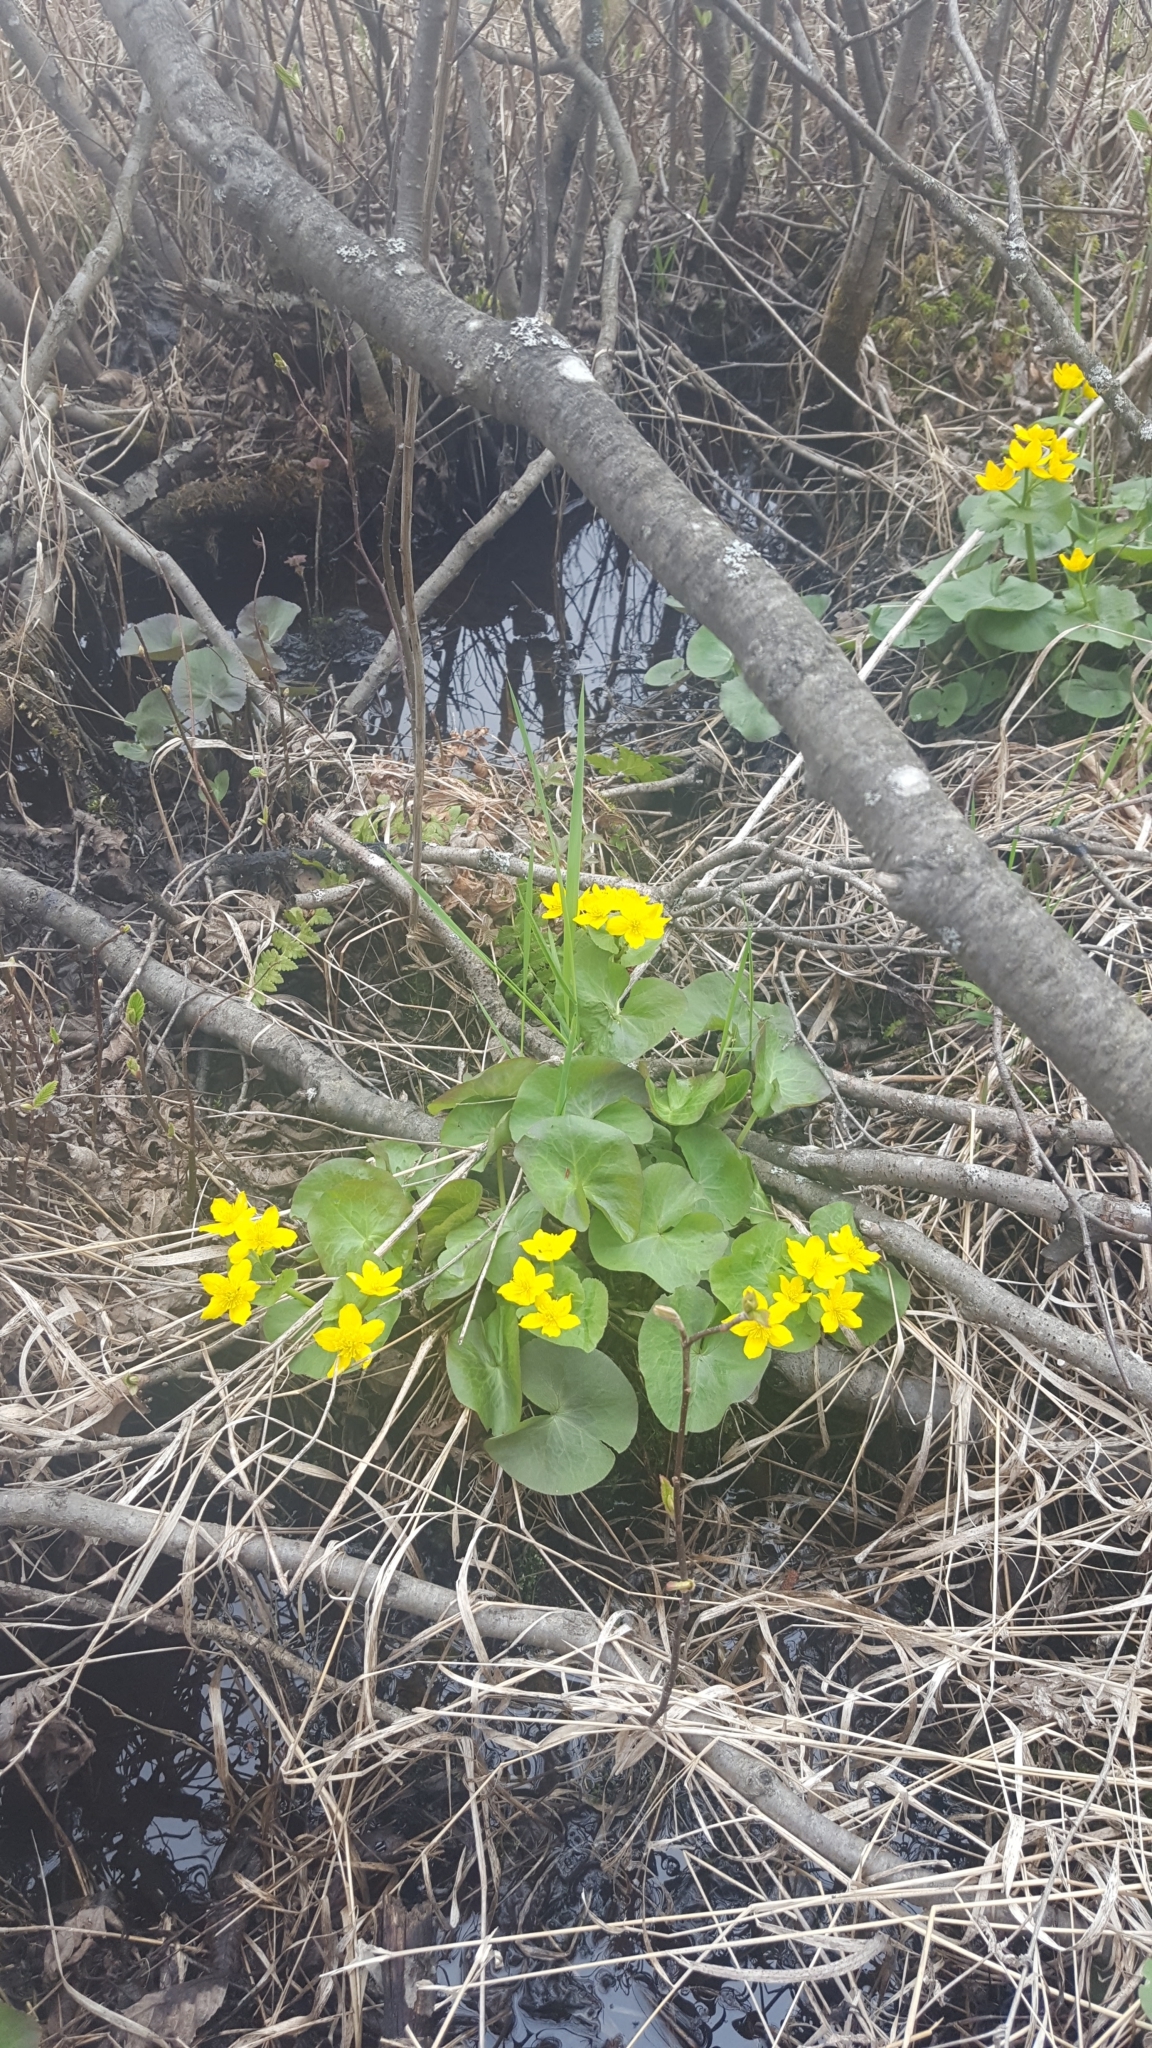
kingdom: Plantae
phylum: Tracheophyta
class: Magnoliopsida
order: Ranunculales
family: Ranunculaceae
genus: Caltha
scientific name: Caltha palustris
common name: Marsh marigold
